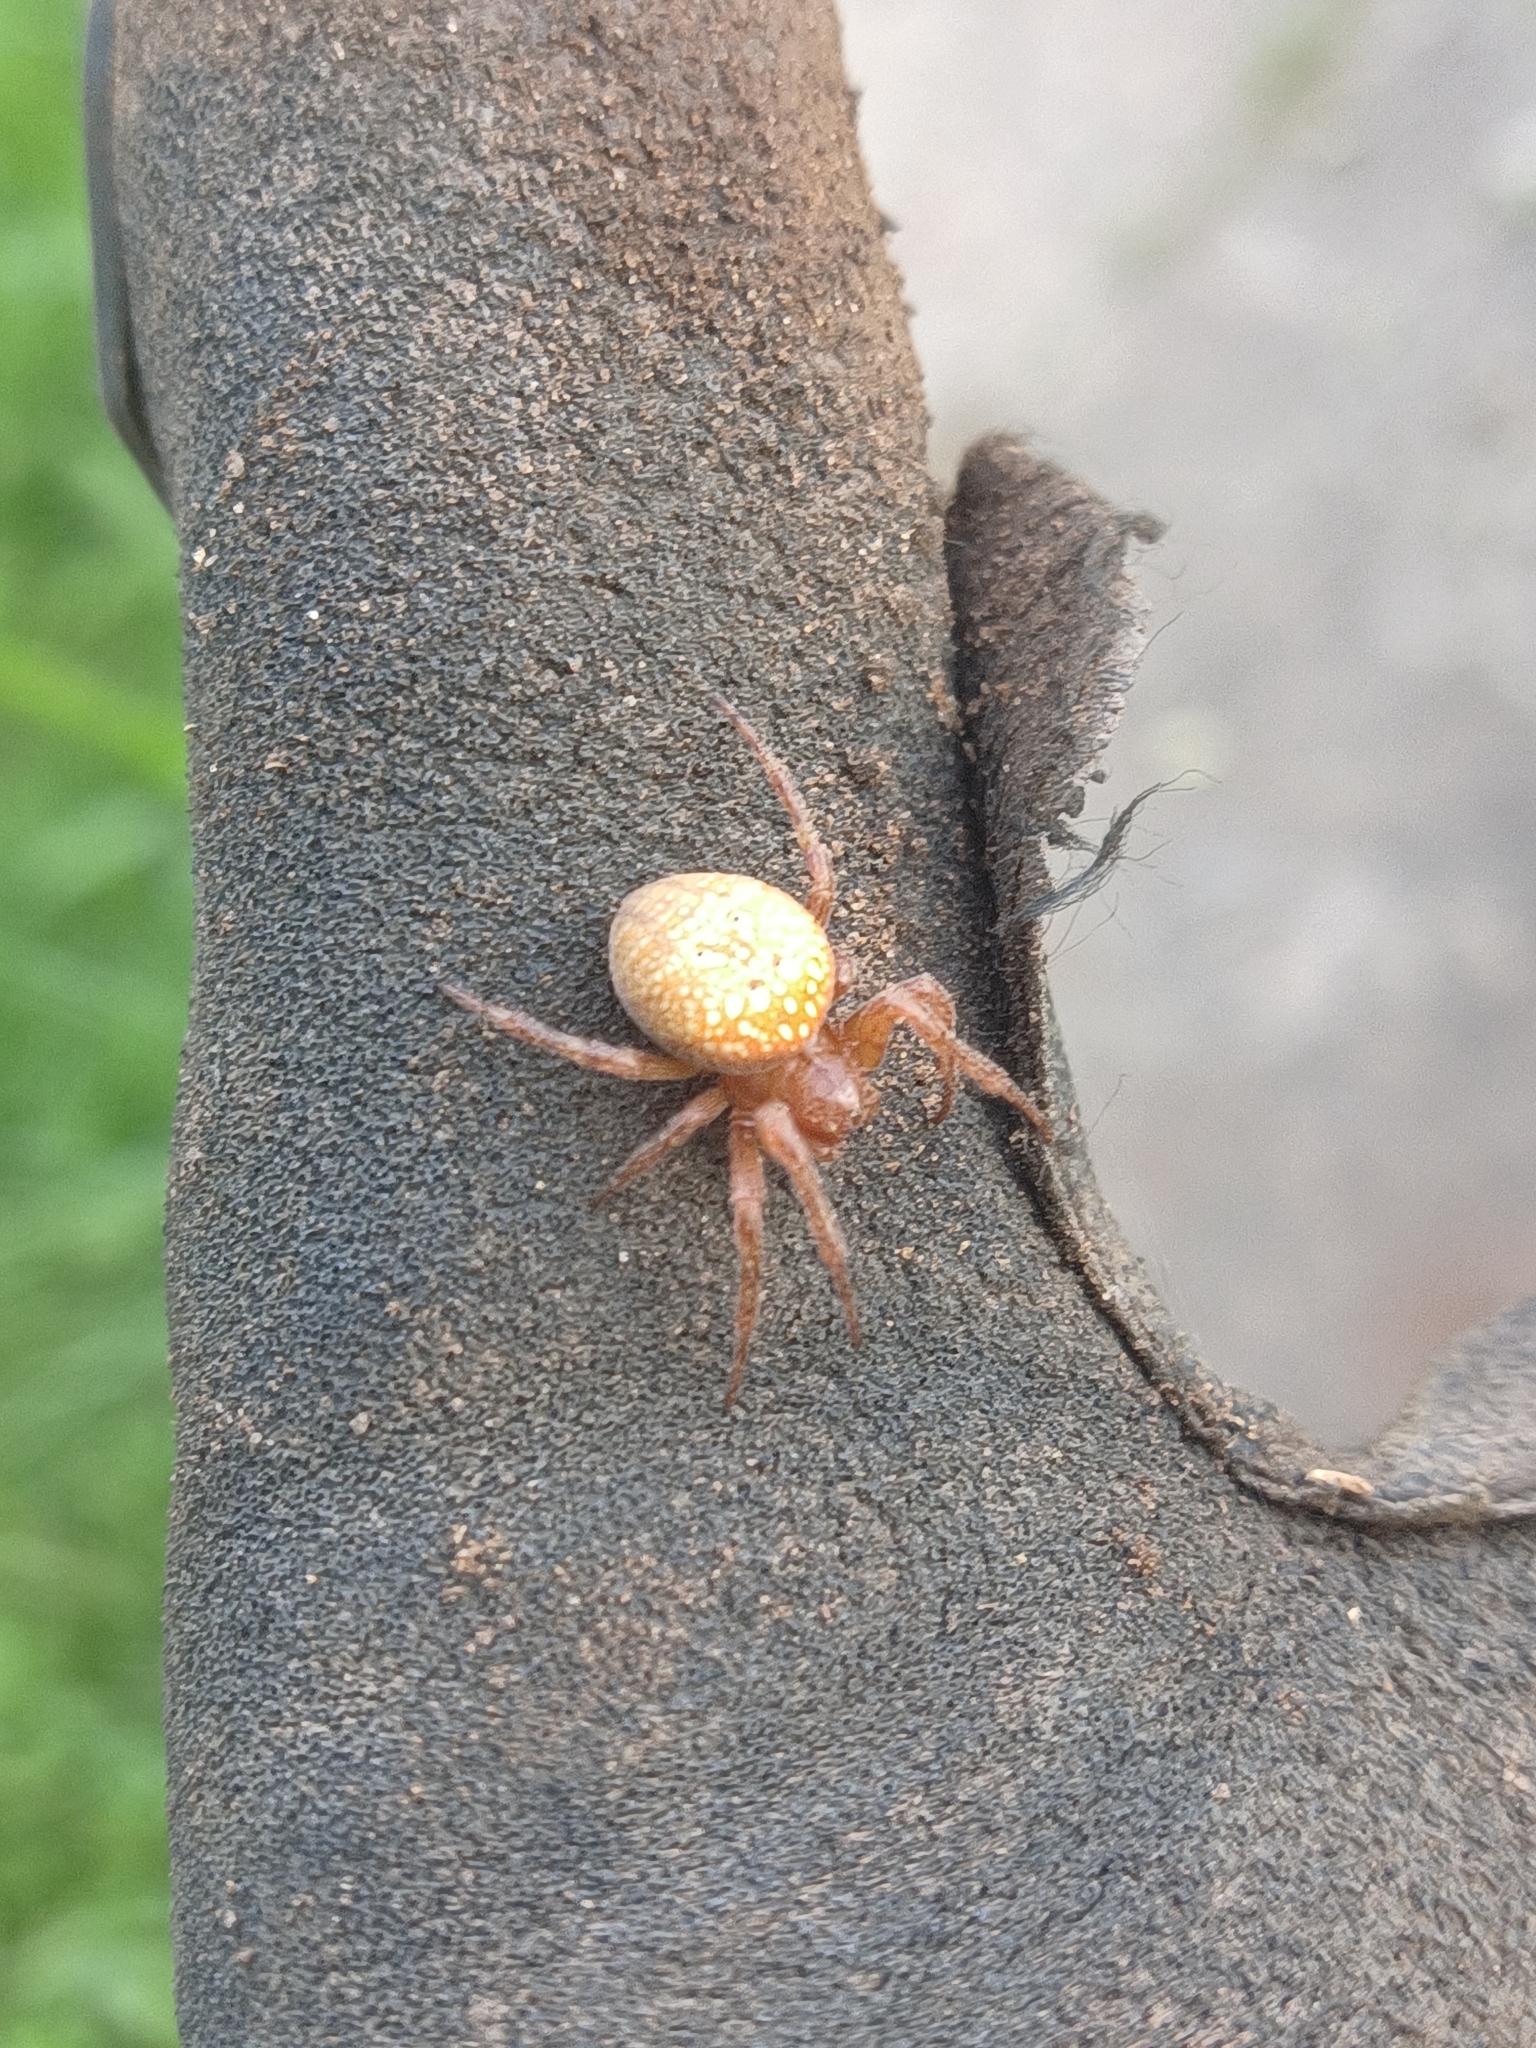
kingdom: Animalia
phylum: Arthropoda
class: Arachnida
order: Araneae
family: Araneidae
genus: Araneus
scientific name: Araneus alsine
